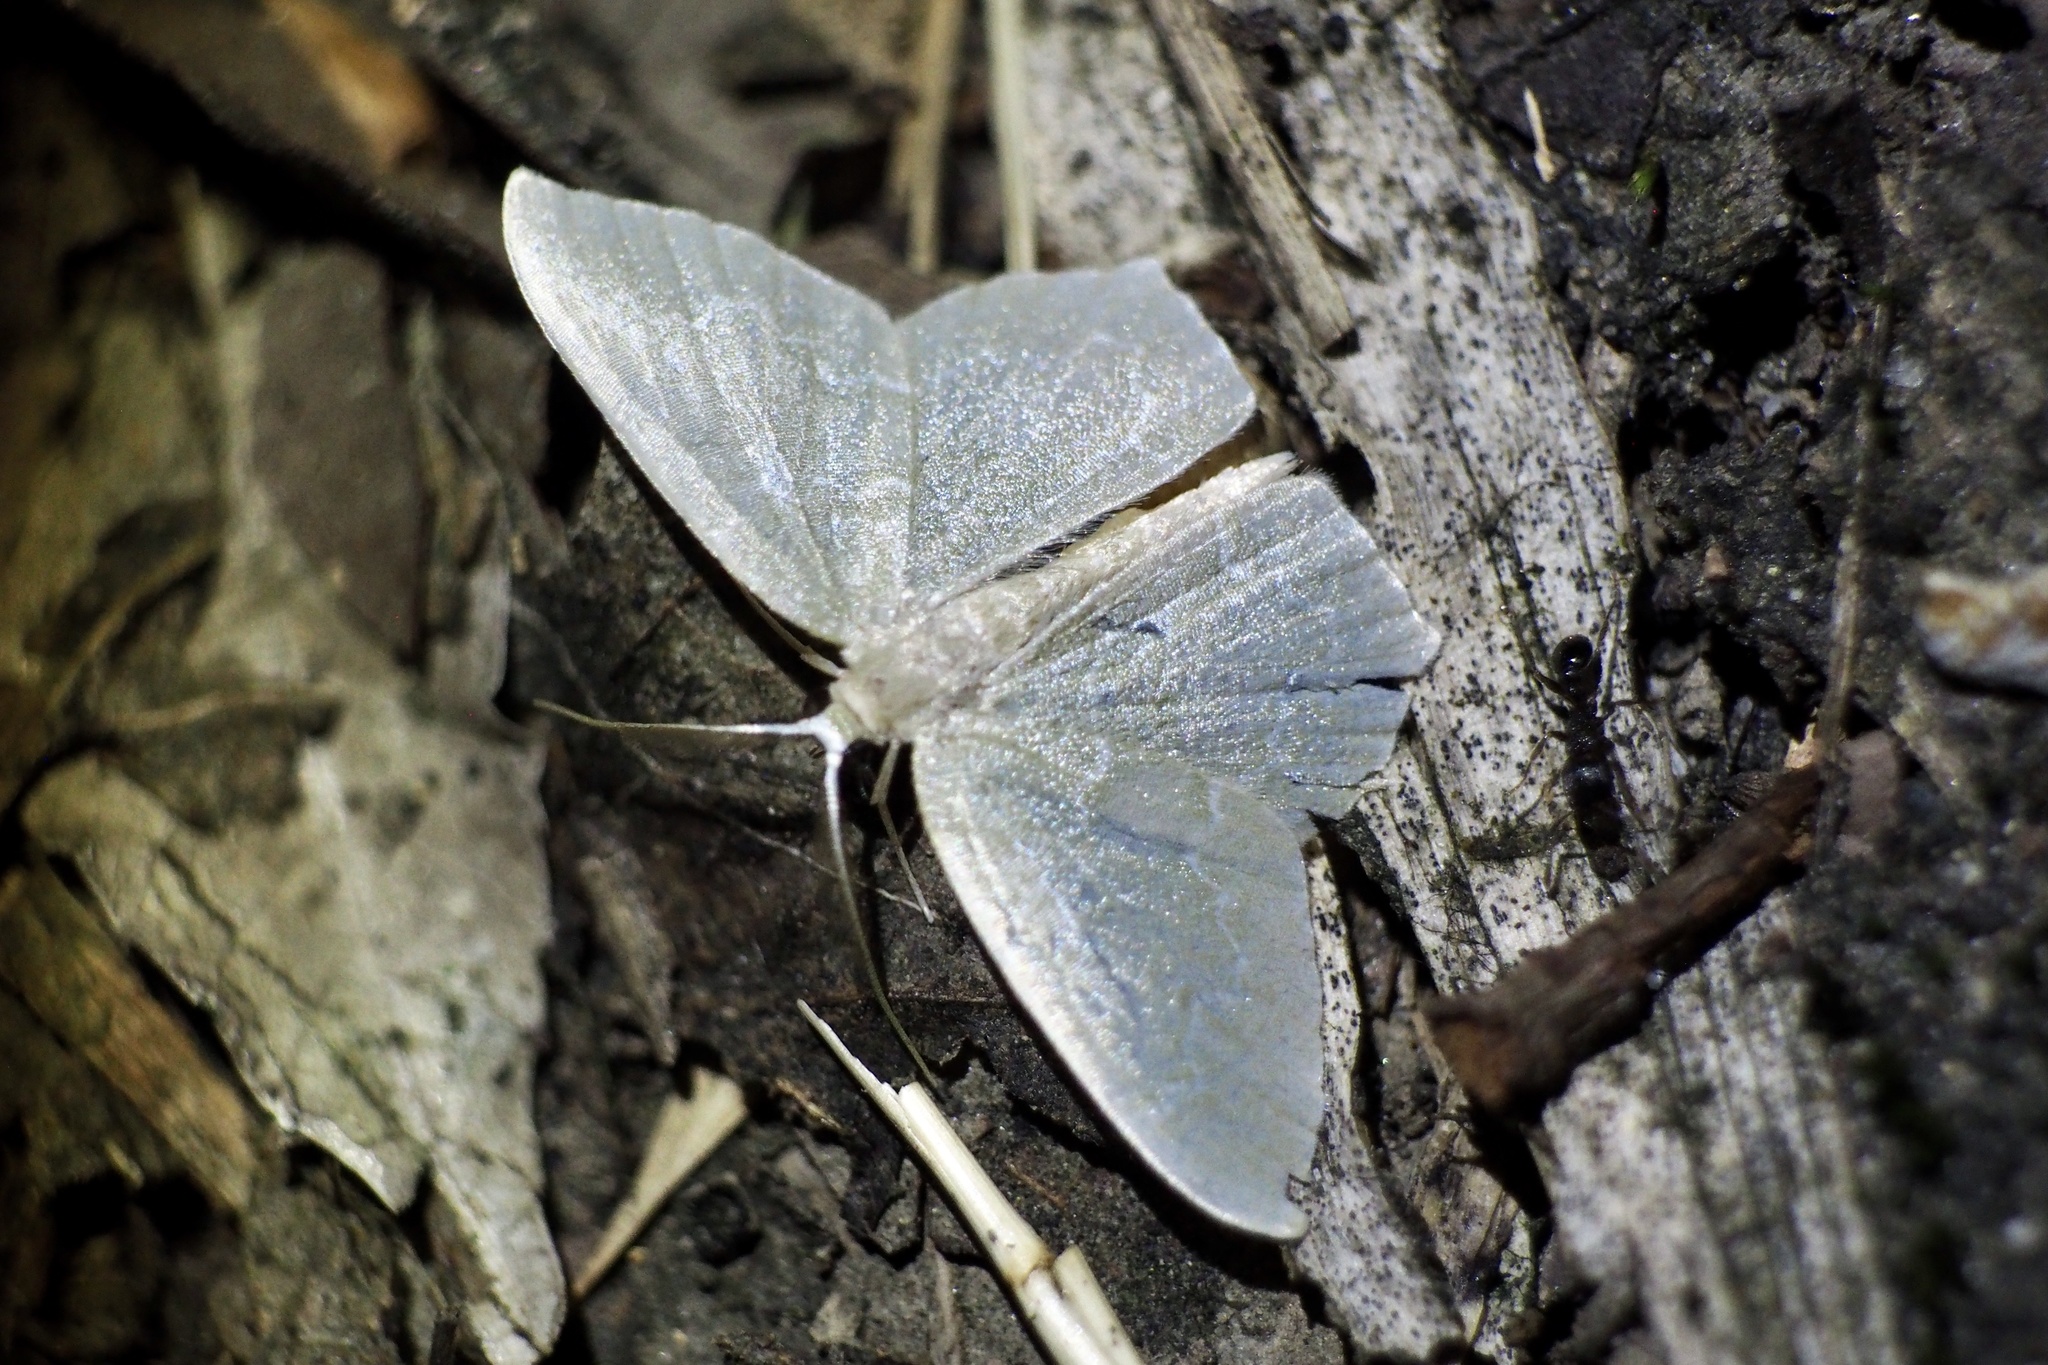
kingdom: Animalia
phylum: Arthropoda
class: Insecta
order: Lepidoptera
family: Geometridae
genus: Jodis
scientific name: Jodis urosticta
